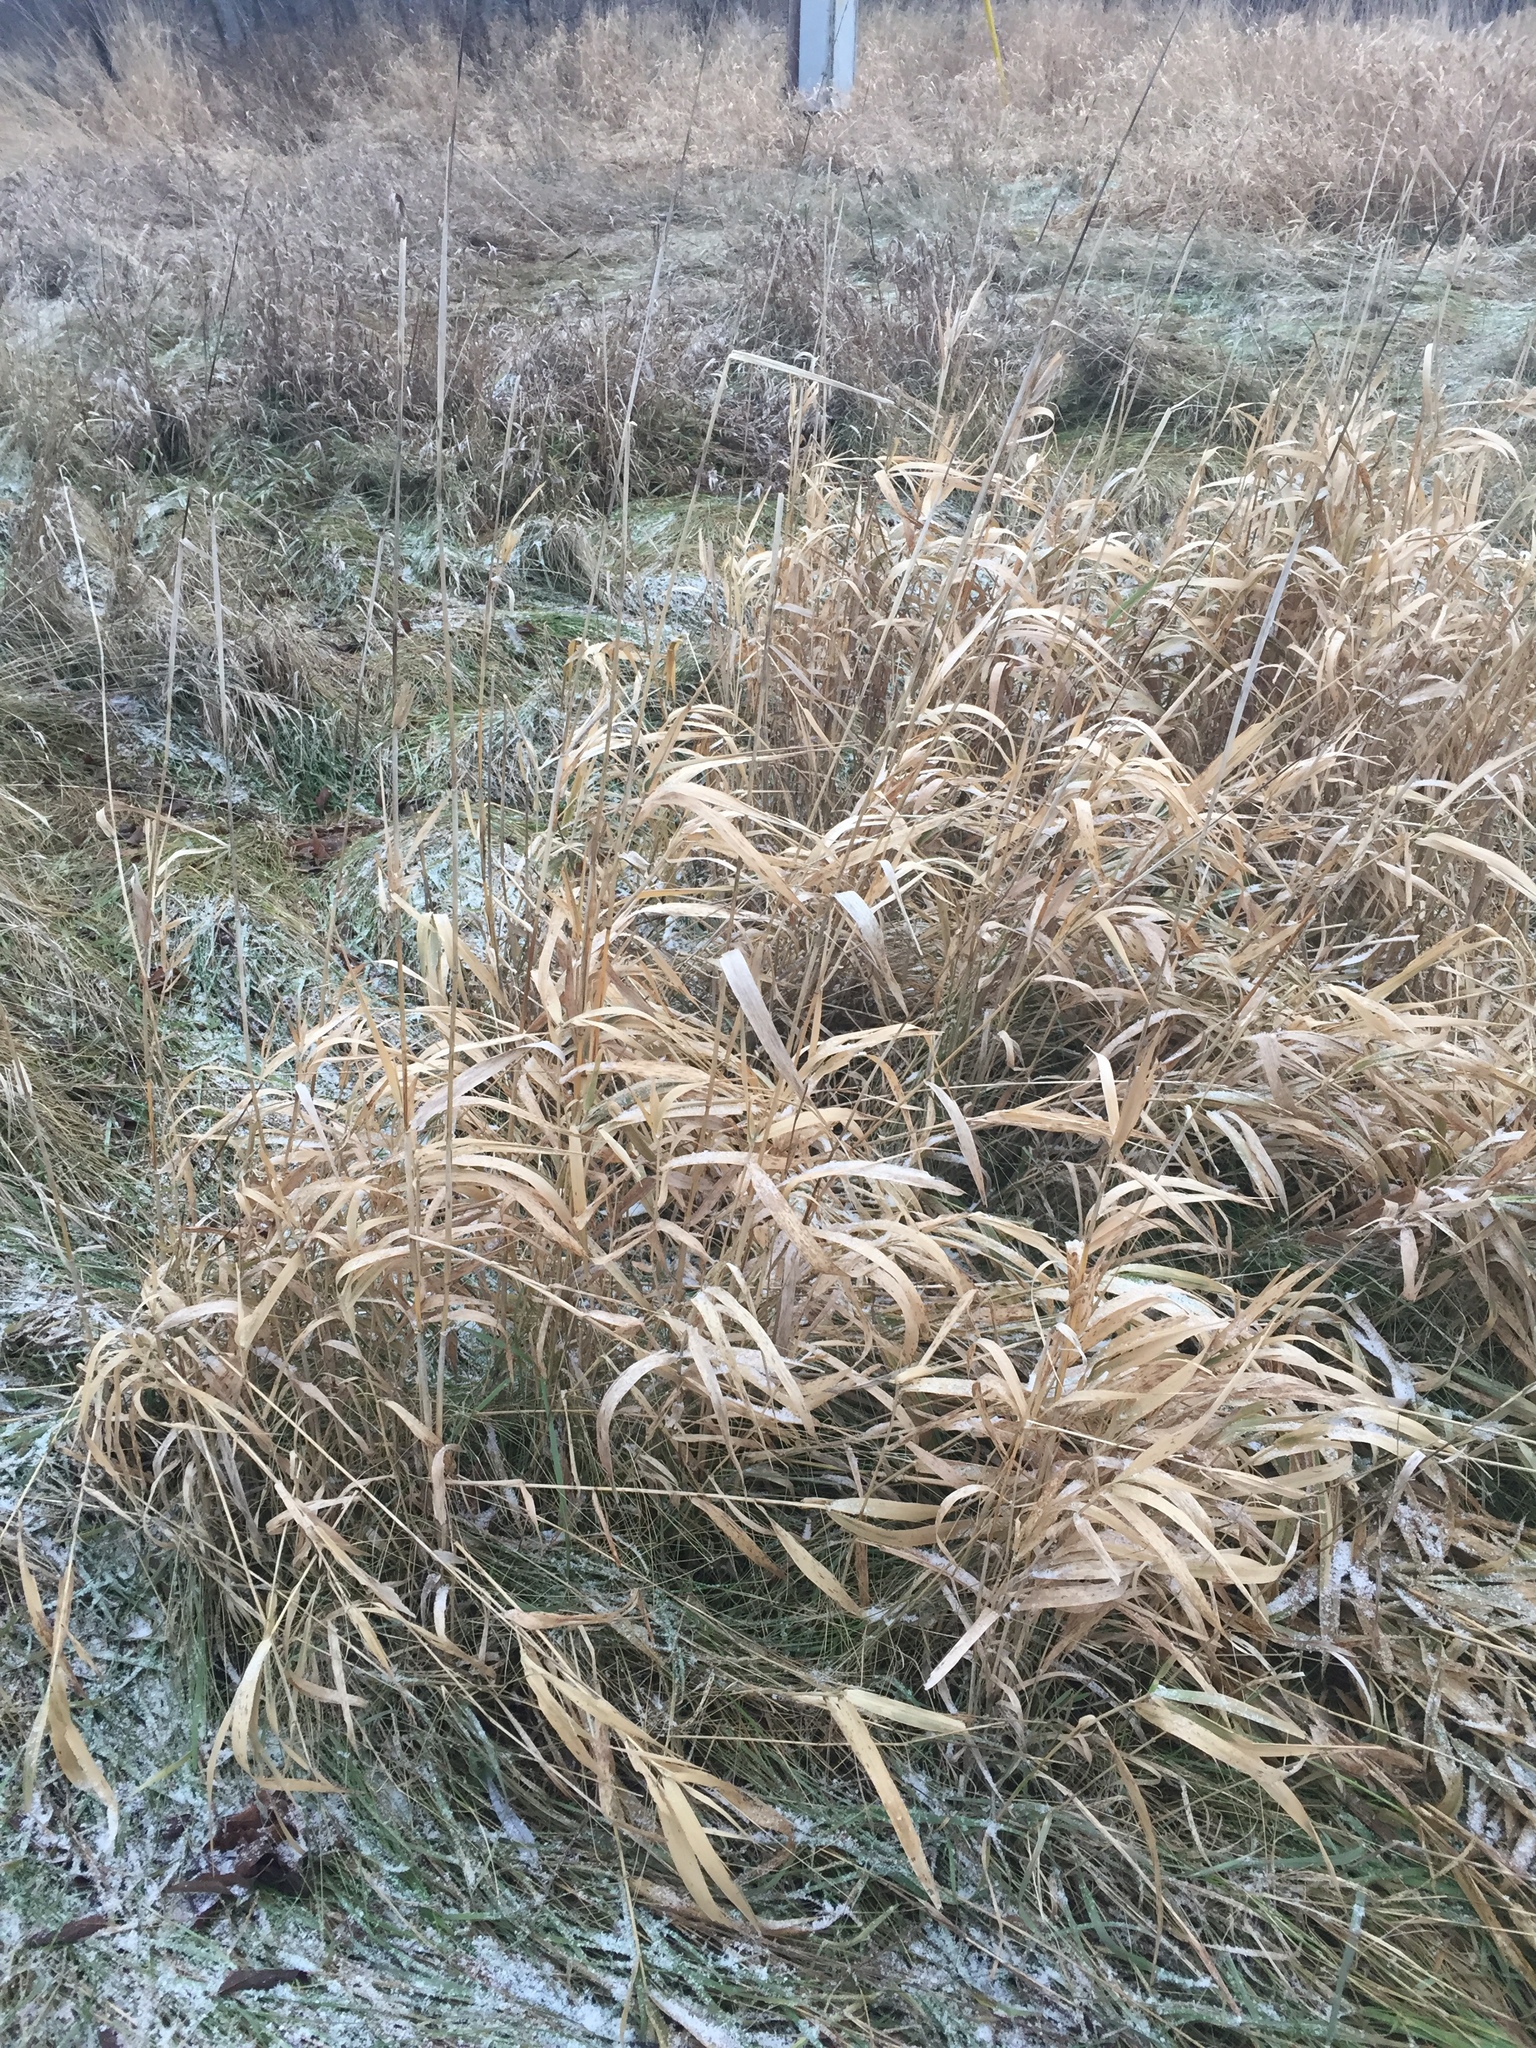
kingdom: Plantae
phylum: Tracheophyta
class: Liliopsida
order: Poales
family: Poaceae
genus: Phalaris
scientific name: Phalaris arundinacea
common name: Reed canary-grass
